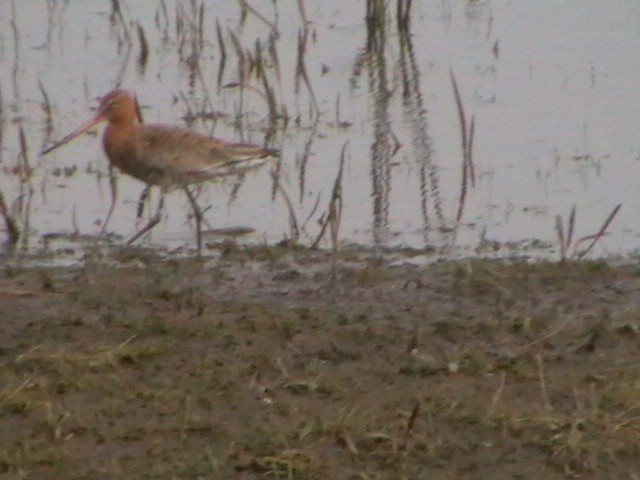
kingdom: Animalia
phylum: Chordata
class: Aves
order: Charadriiformes
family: Scolopacidae
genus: Limosa
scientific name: Limosa limosa
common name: Black-tailed godwit
